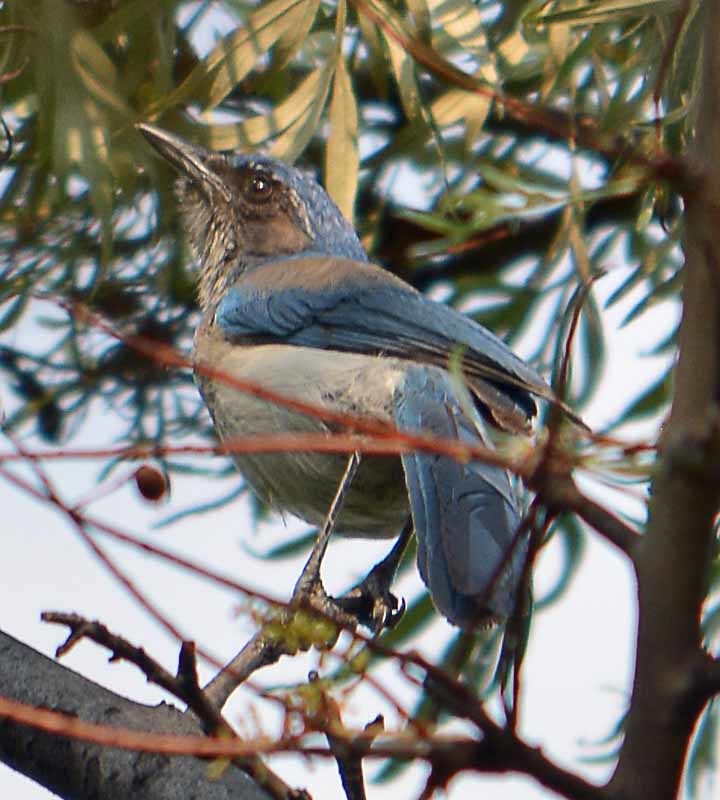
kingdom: Animalia
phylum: Chordata
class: Aves
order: Passeriformes
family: Corvidae
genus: Aphelocoma
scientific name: Aphelocoma woodhouseii
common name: Woodhouse's scrub-jay
